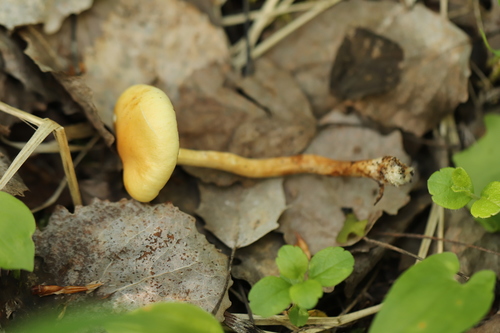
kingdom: Fungi
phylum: Basidiomycota
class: Agaricomycetes
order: Agaricales
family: Strophariaceae
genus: Hypholoma
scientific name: Hypholoma capnoides
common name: Conifer tuft
